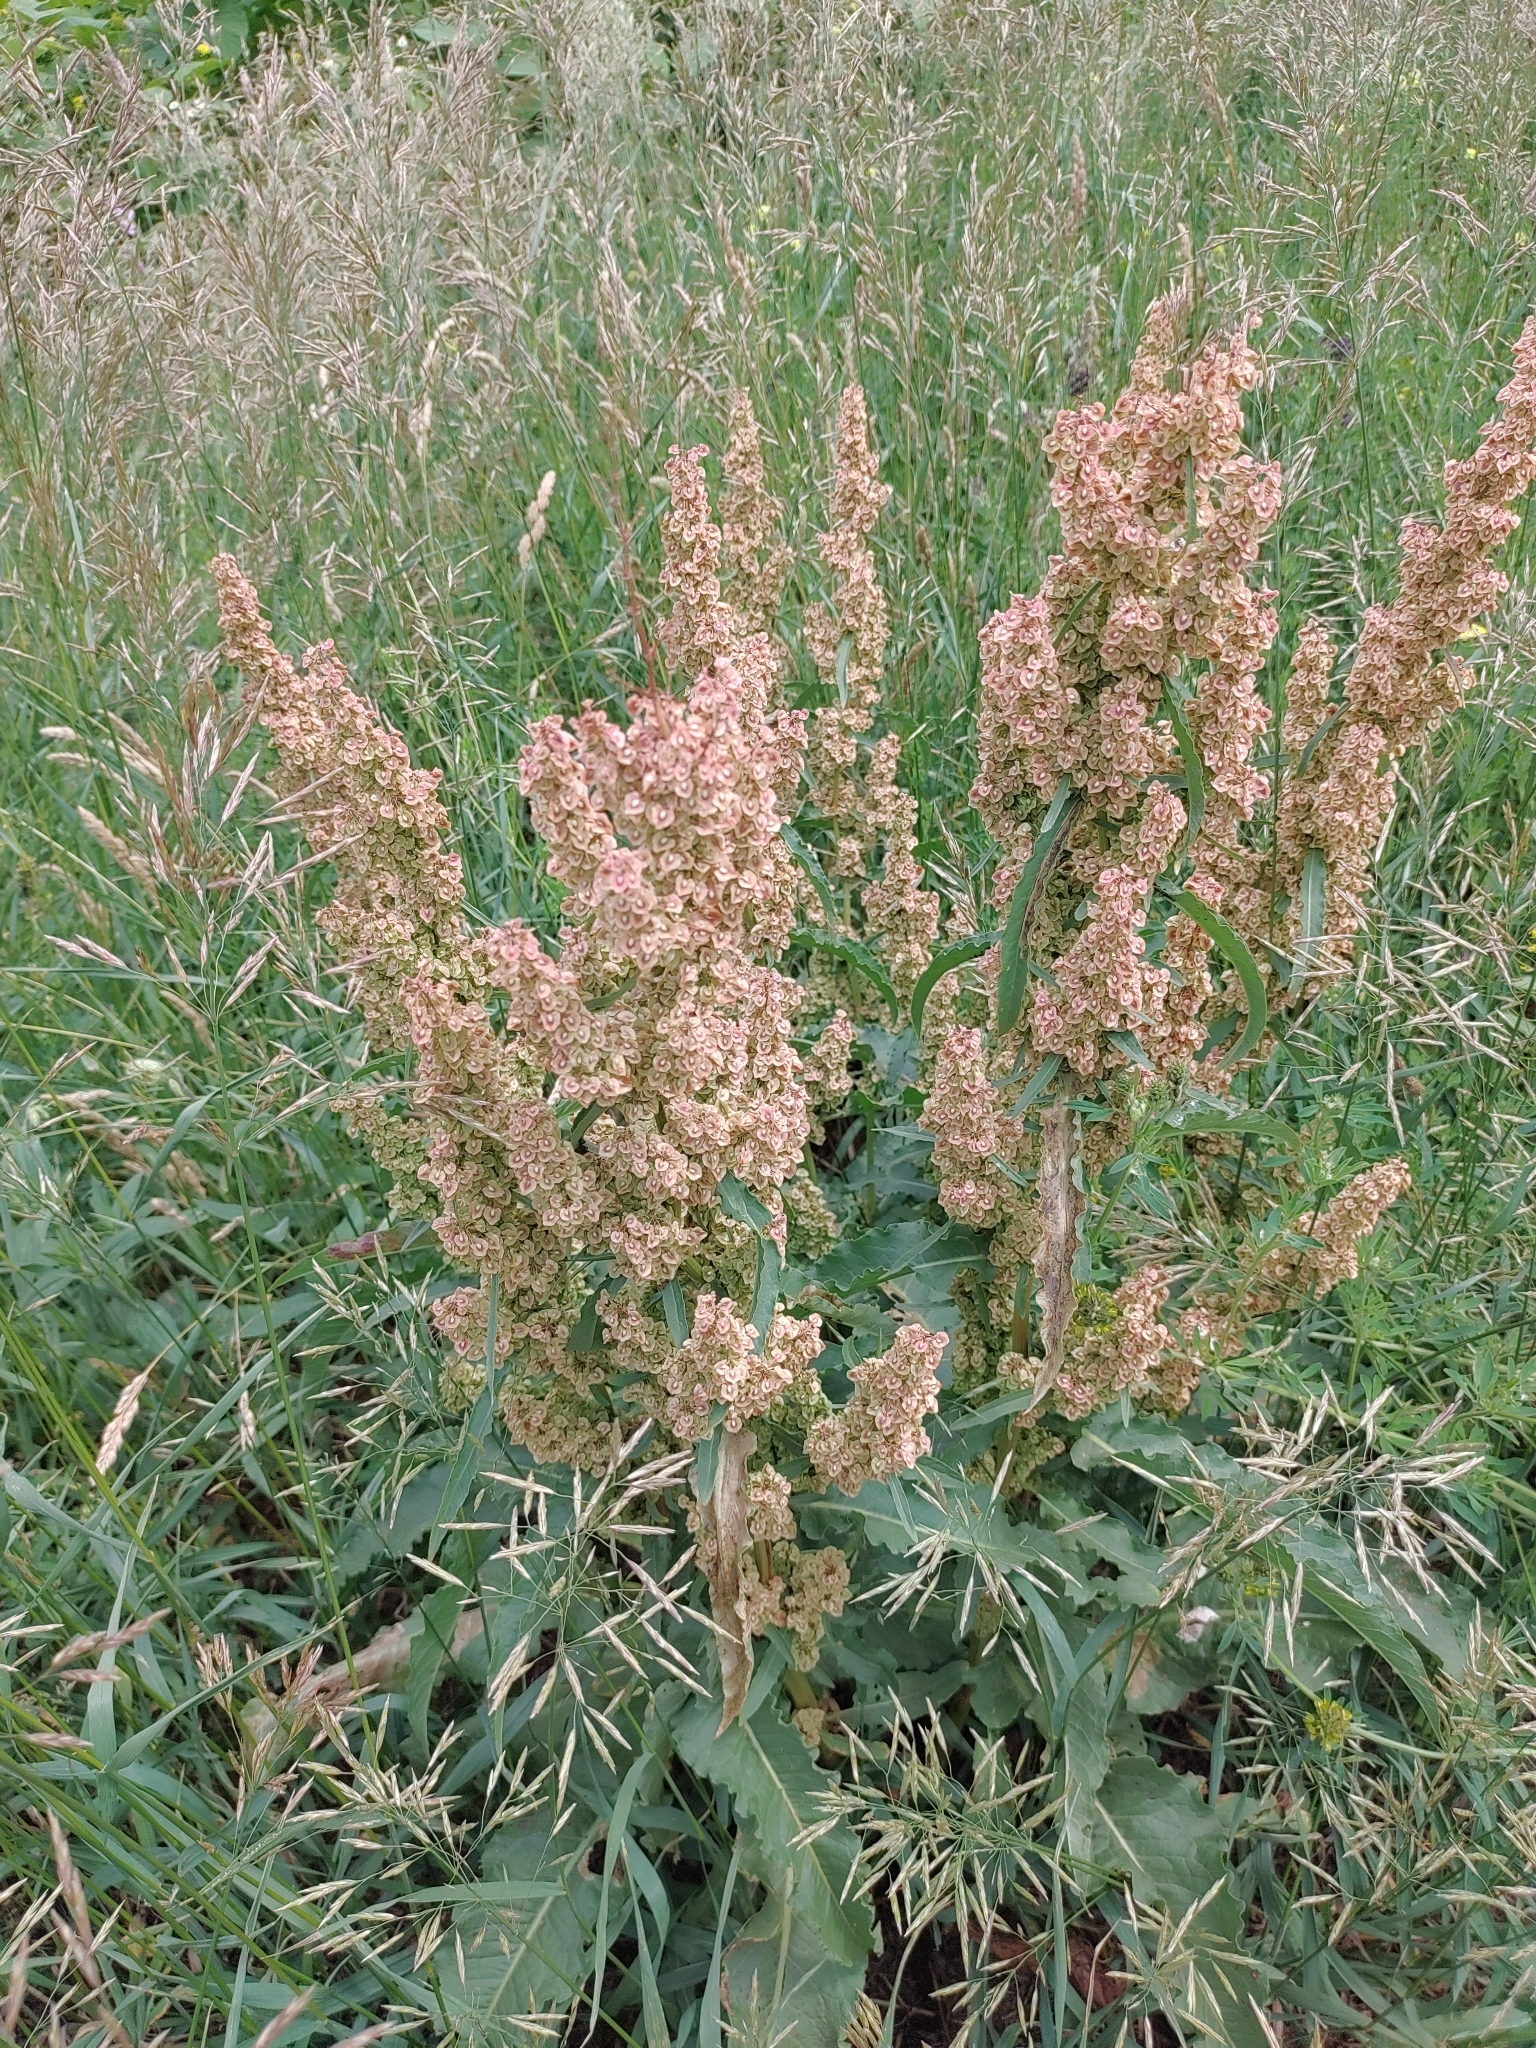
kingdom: Plantae
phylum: Tracheophyta
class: Magnoliopsida
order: Caryophyllales
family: Polygonaceae
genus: Rumex
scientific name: Rumex crispus
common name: Curled dock
